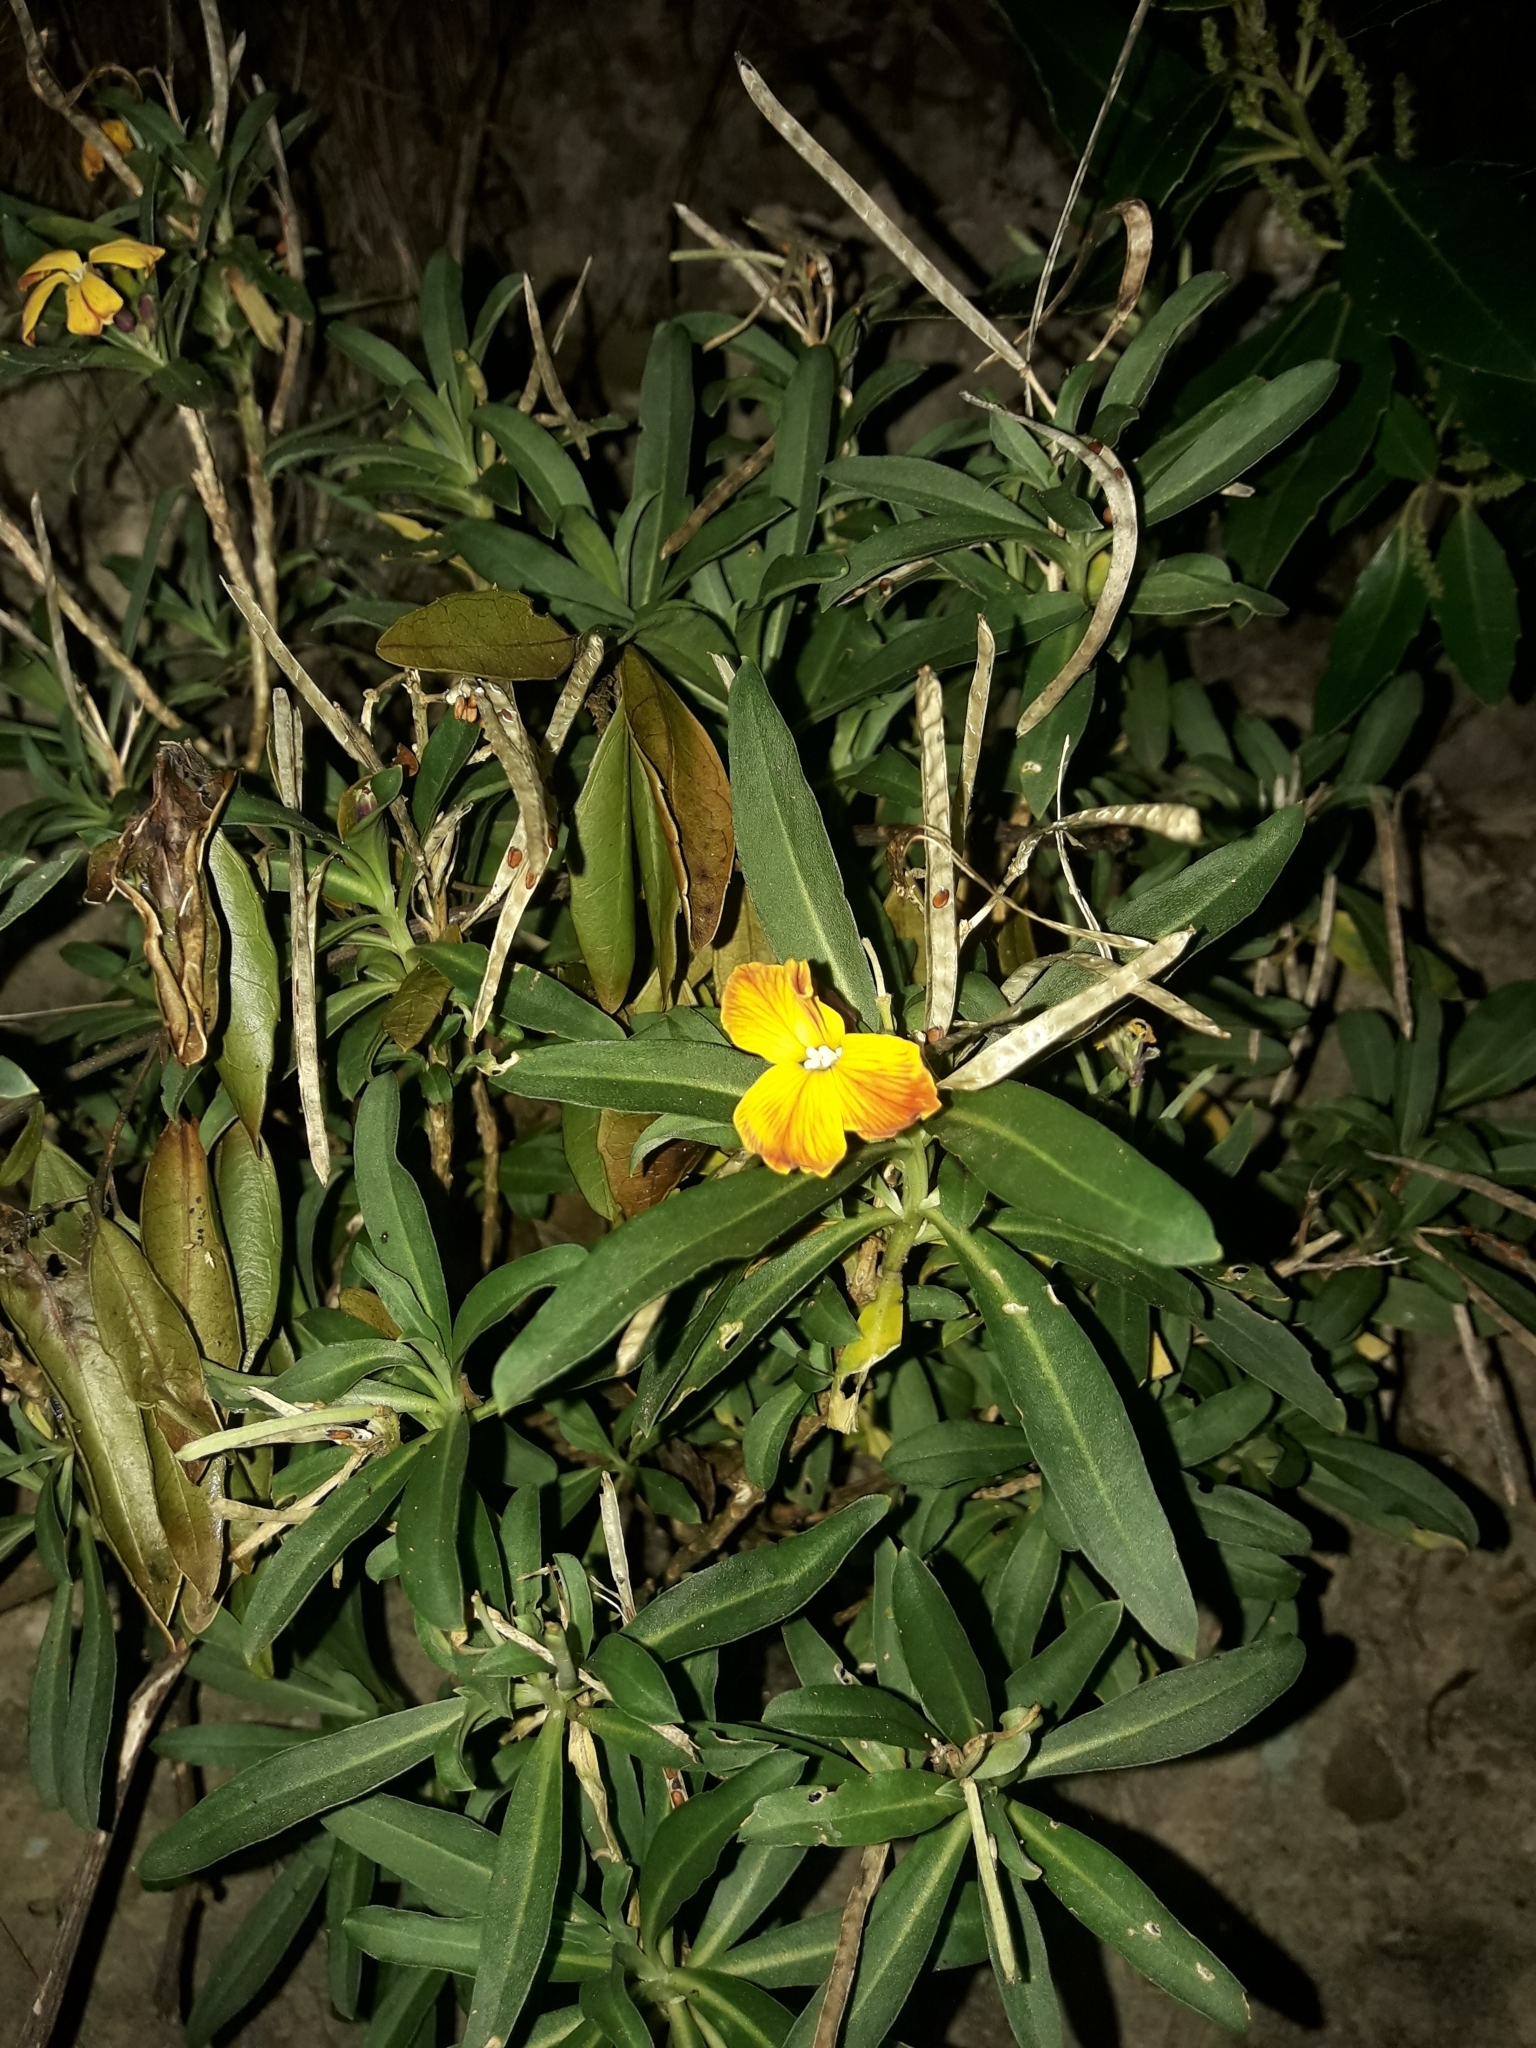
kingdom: Plantae
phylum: Tracheophyta
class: Magnoliopsida
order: Brassicales
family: Brassicaceae
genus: Erysimum
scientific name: Erysimum cheiri
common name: Wallflower
